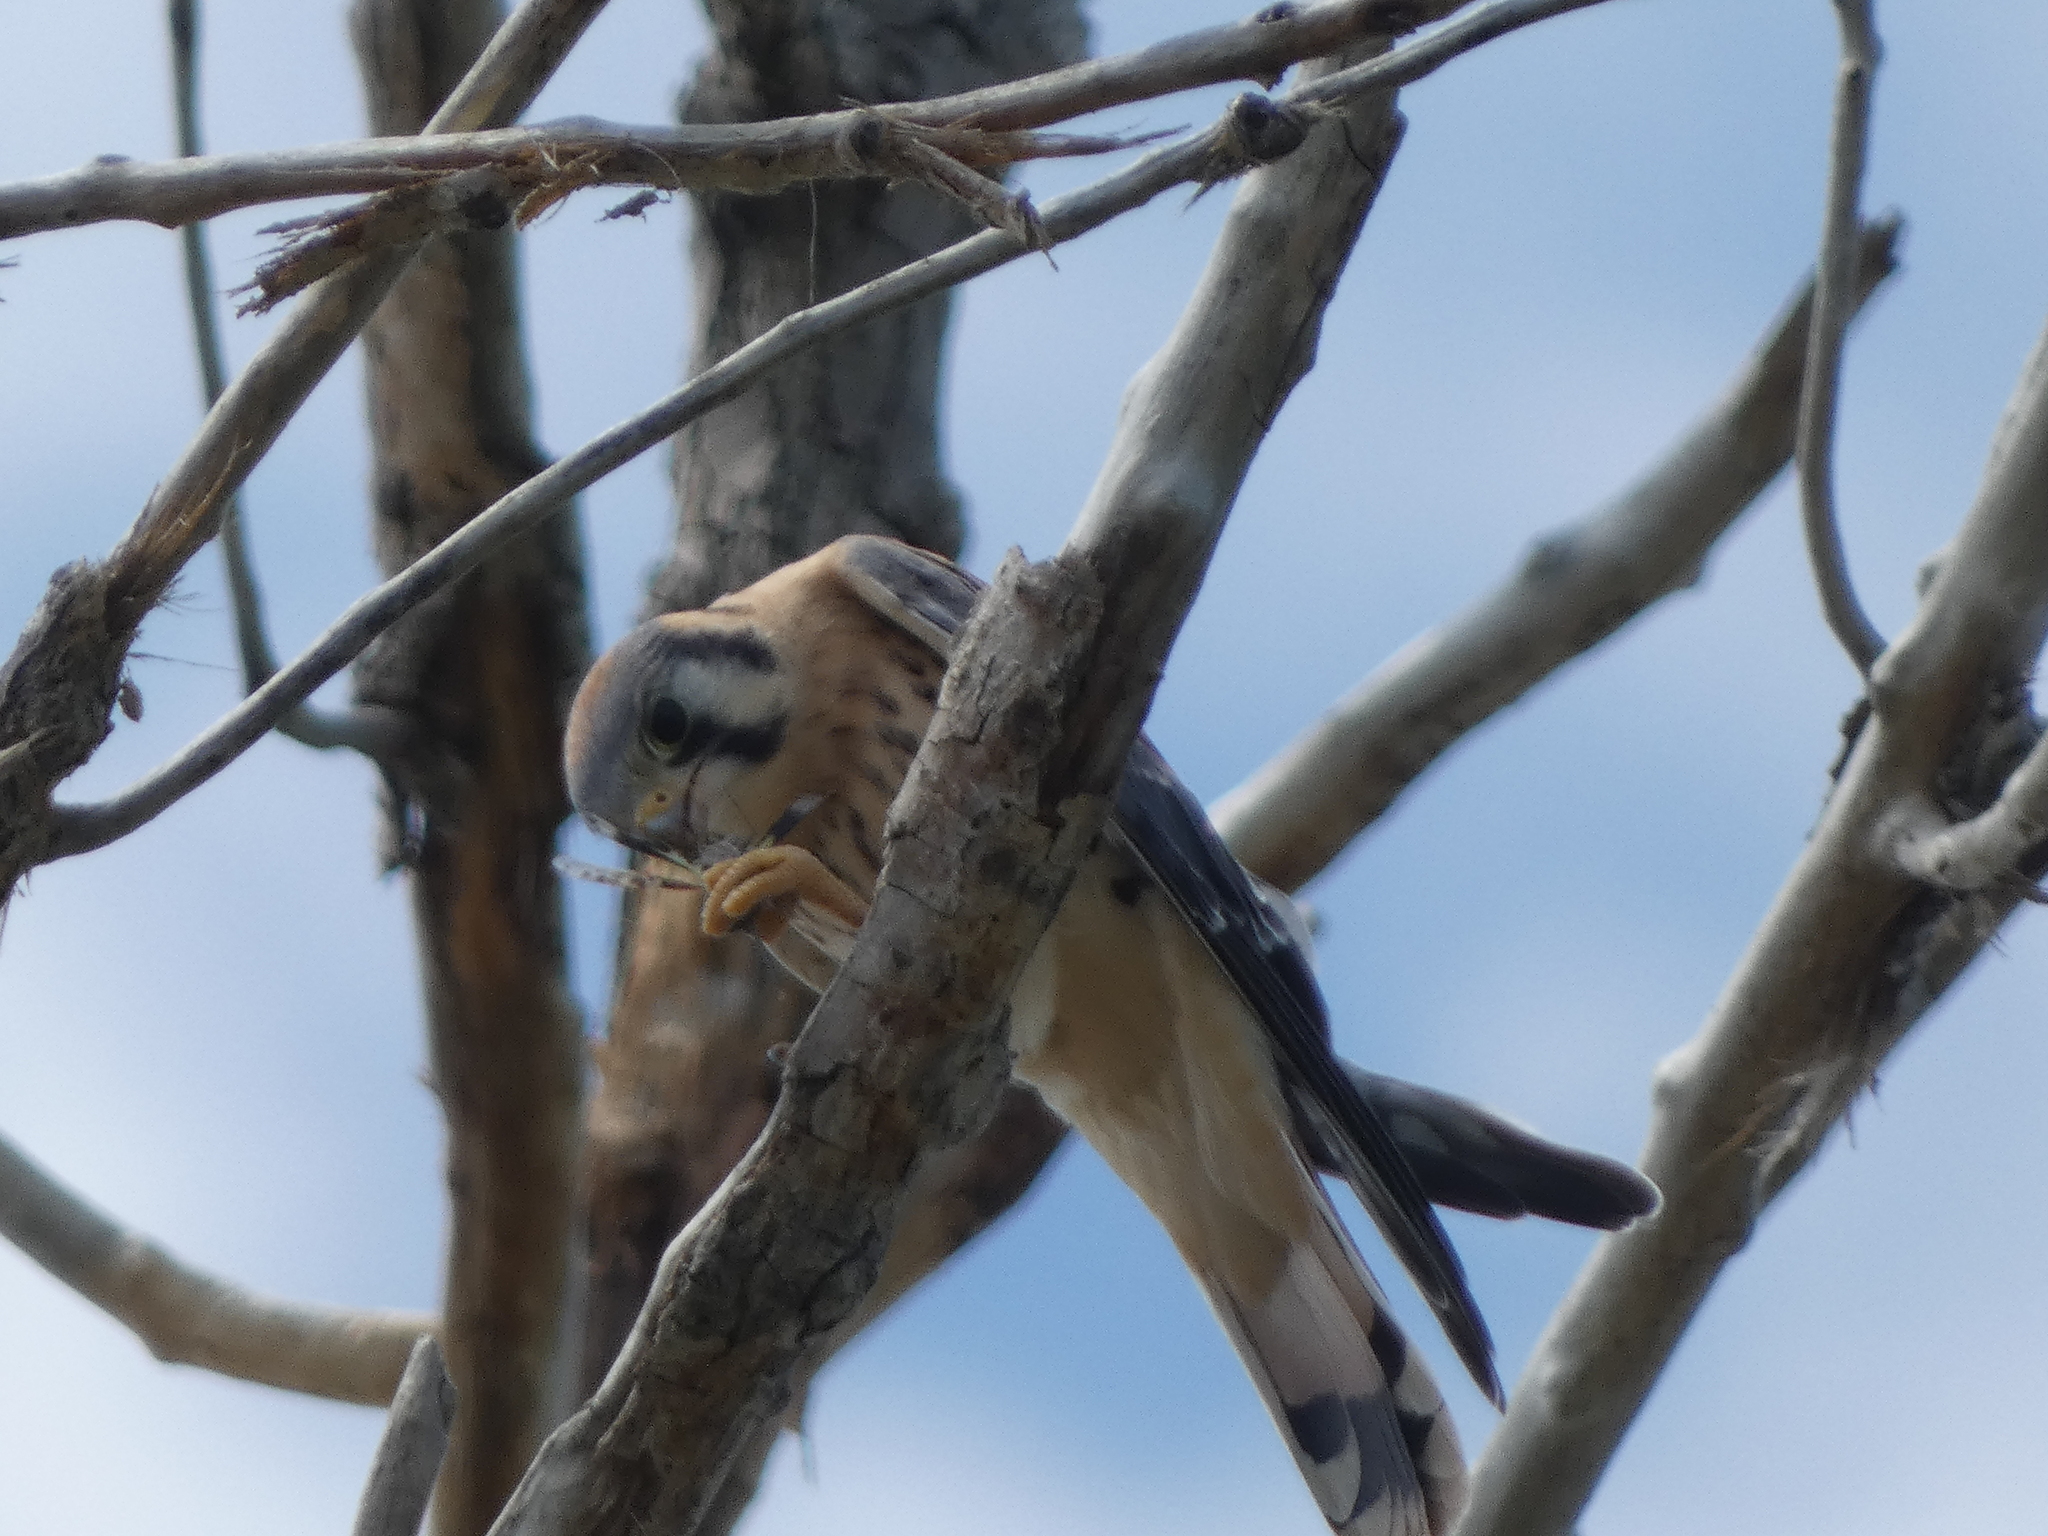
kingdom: Animalia
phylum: Chordata
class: Aves
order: Falconiformes
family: Falconidae
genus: Falco
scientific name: Falco sparverius
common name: American kestrel
